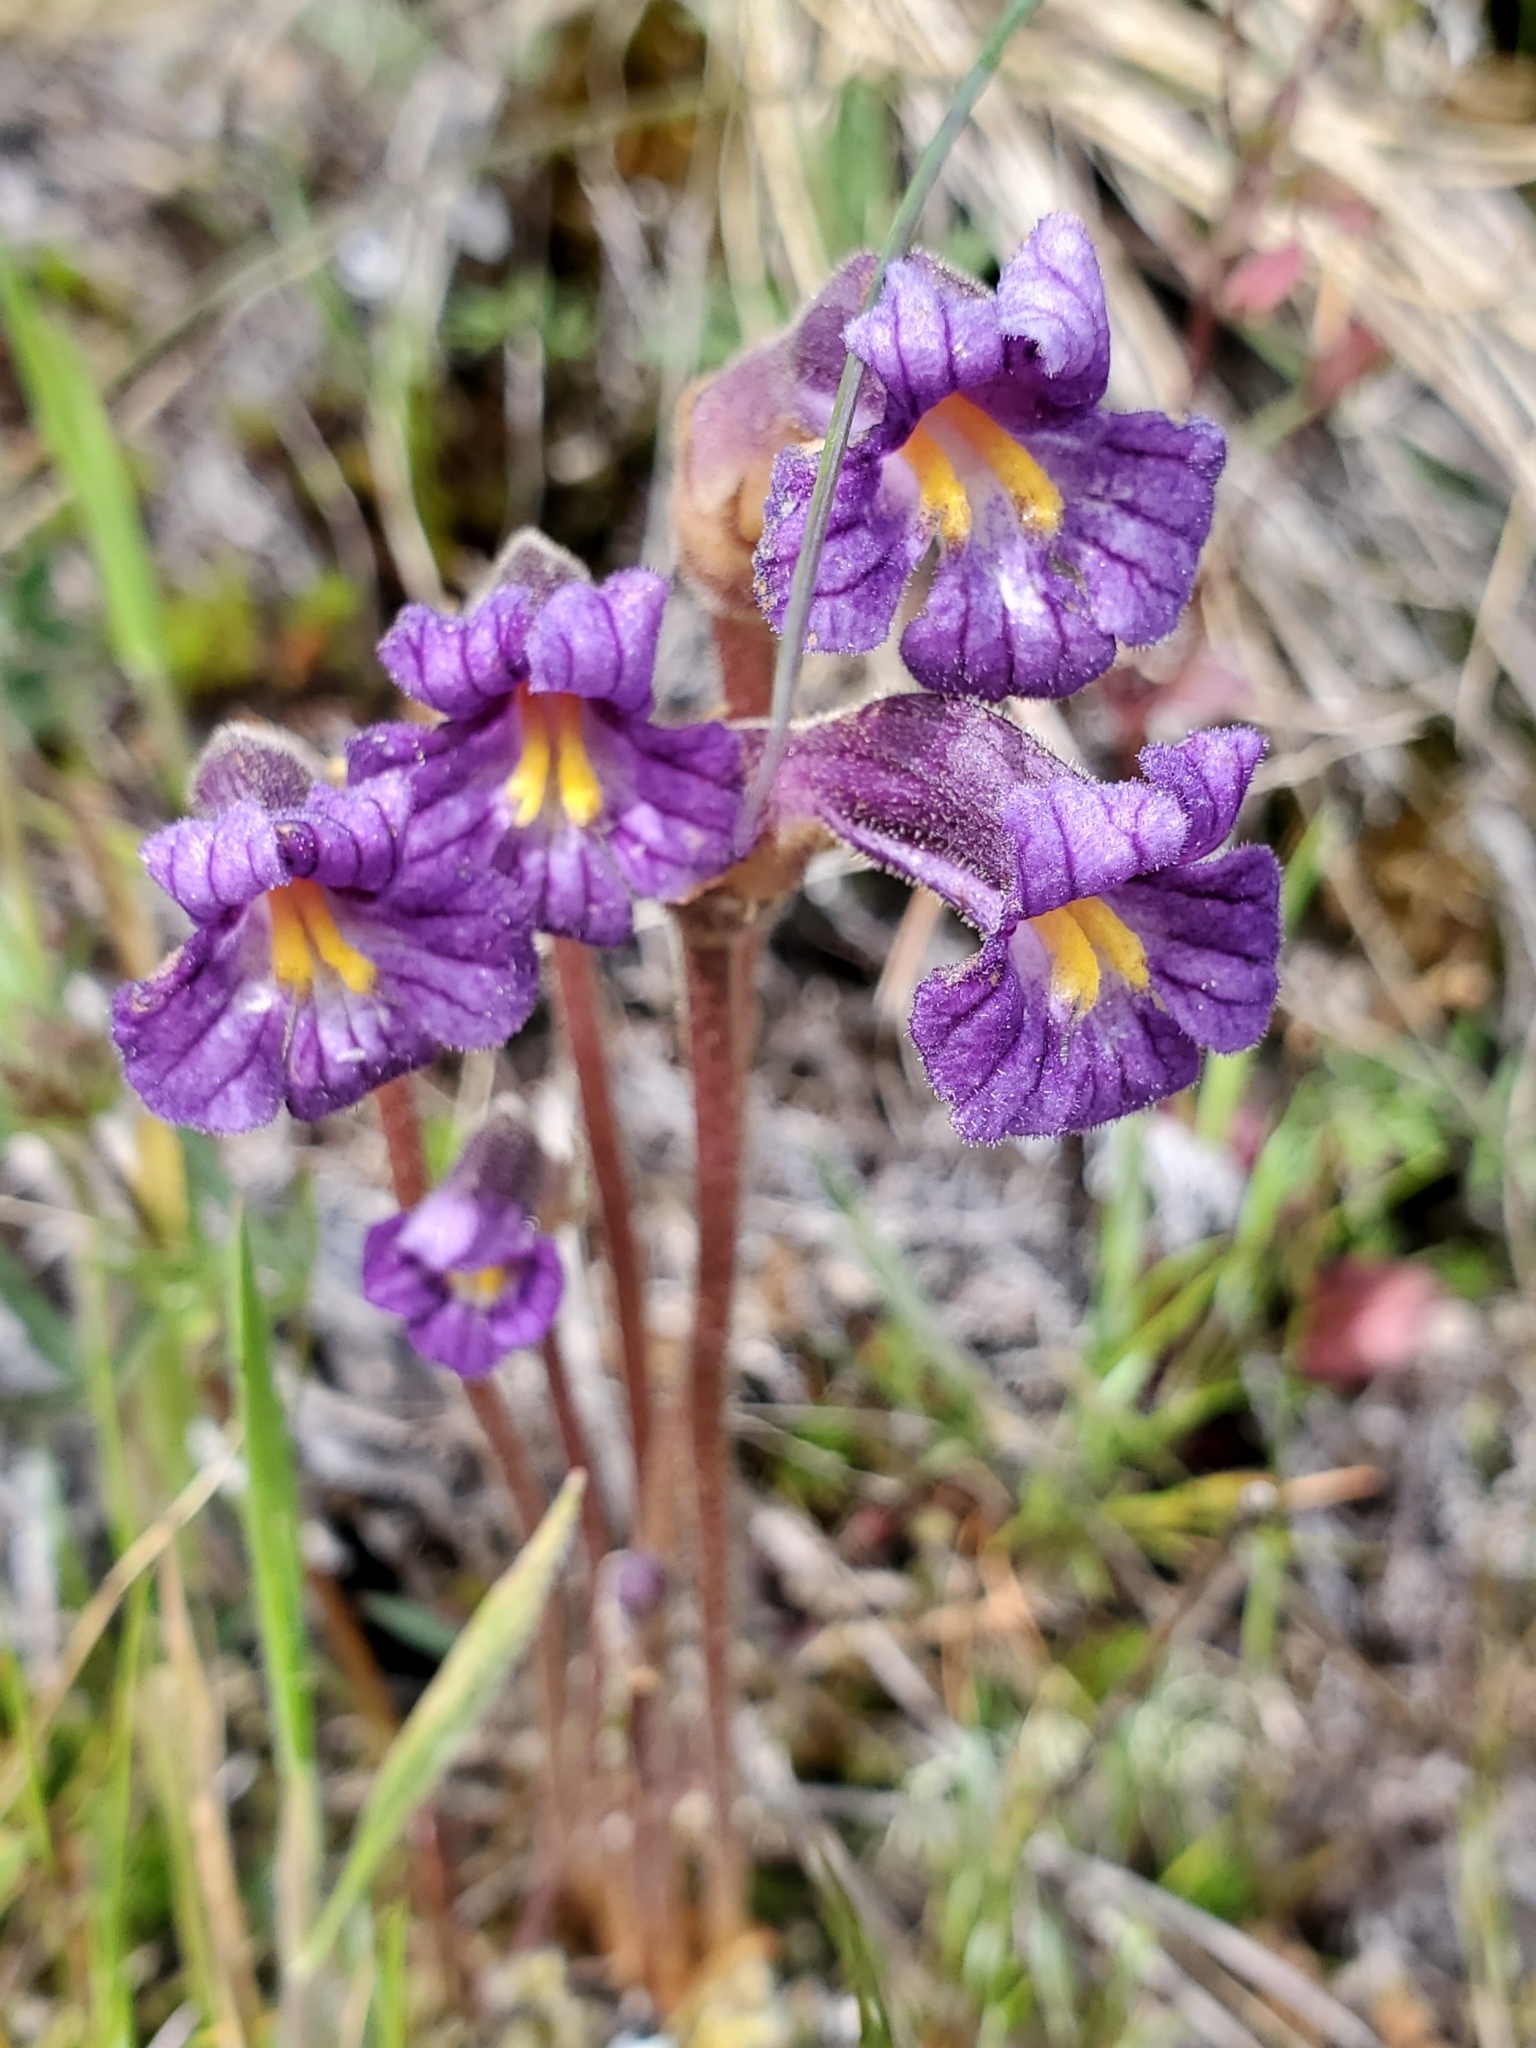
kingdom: Plantae
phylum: Tracheophyta
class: Magnoliopsida
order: Lamiales
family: Orobanchaceae
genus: Aphyllon
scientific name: Aphyllon uniflorum
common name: One-flowered broomrape
